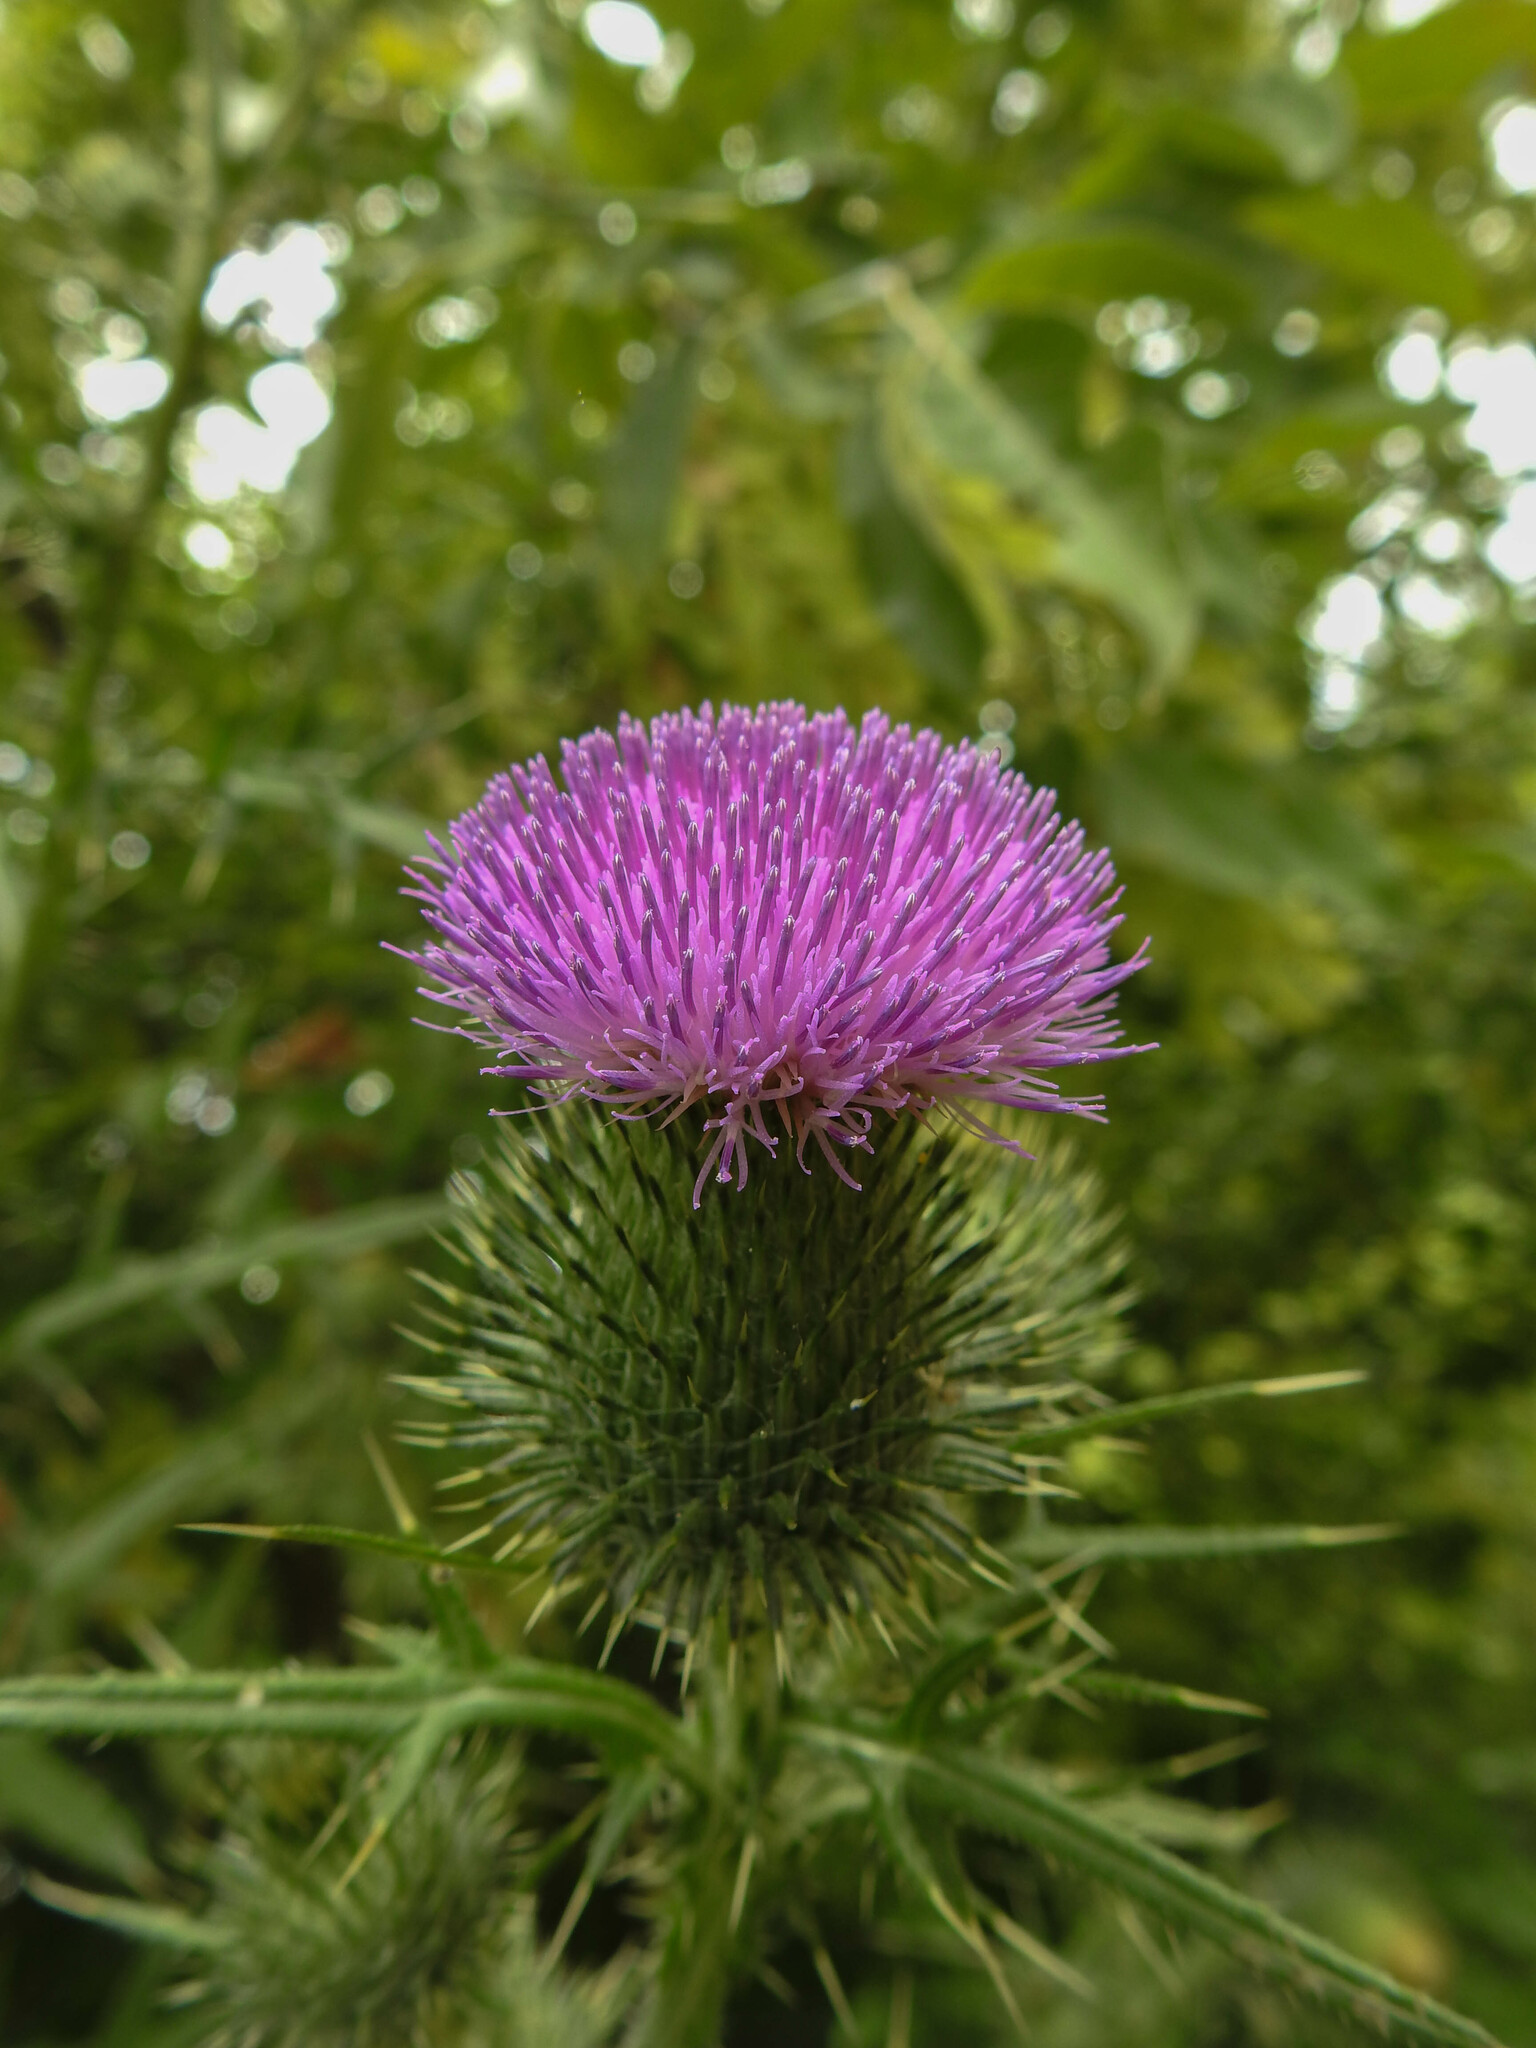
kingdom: Plantae
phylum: Tracheophyta
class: Magnoliopsida
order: Asterales
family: Asteraceae
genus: Cirsium
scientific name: Cirsium vulgare
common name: Bull thistle
